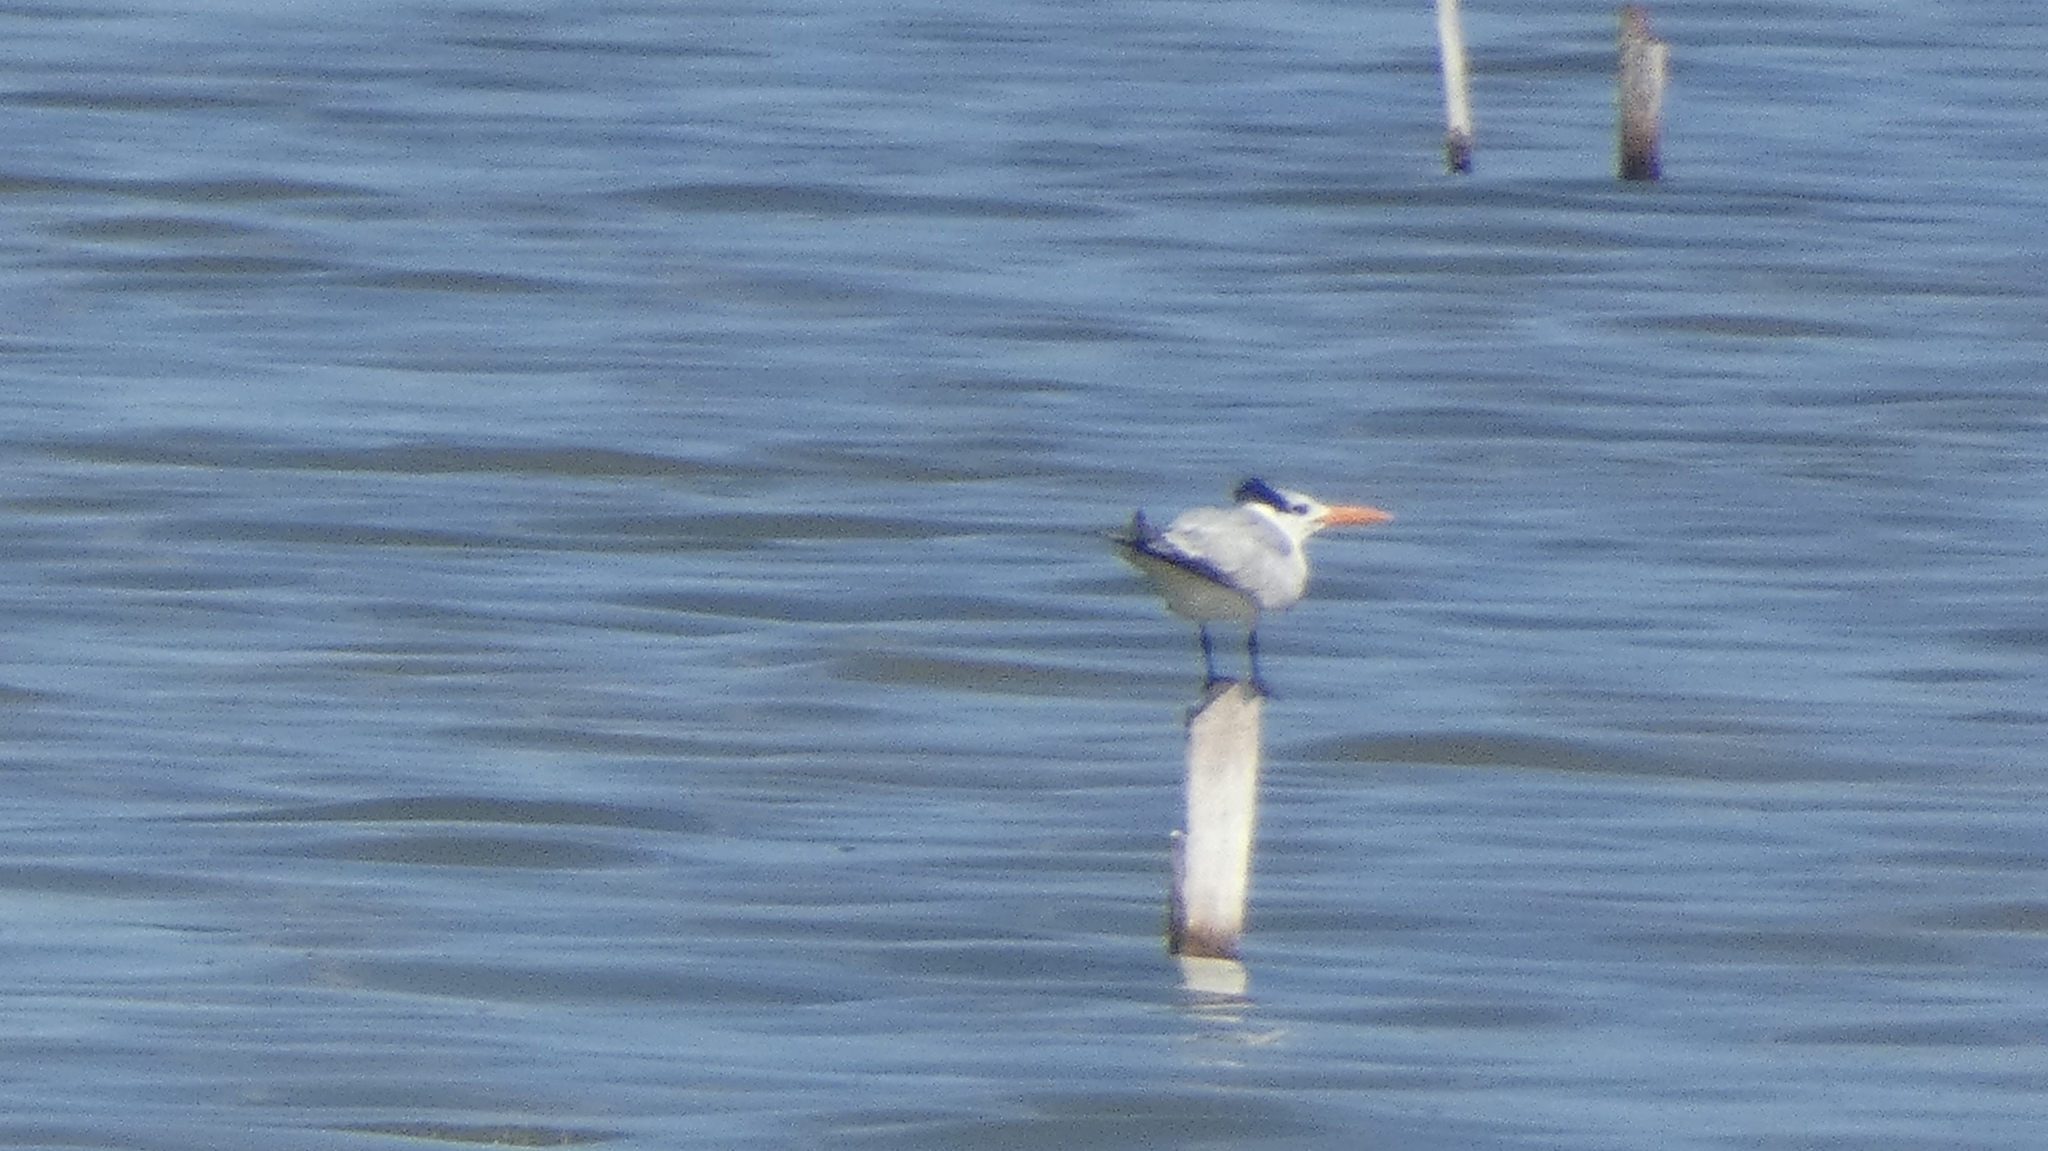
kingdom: Animalia
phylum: Chordata
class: Aves
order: Charadriiformes
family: Laridae
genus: Thalasseus
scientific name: Thalasseus maximus
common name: Royal tern
